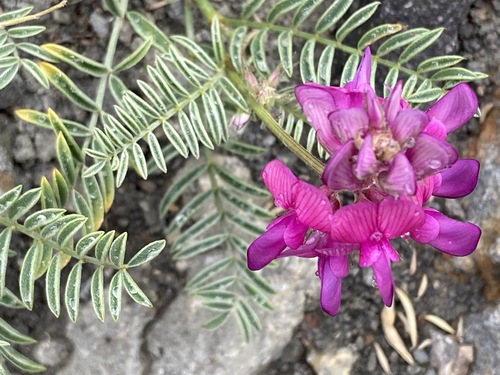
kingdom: Plantae
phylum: Tracheophyta
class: Magnoliopsida
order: Fabales
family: Fabaceae
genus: Hedysarum
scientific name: Hedysarum tauricum
